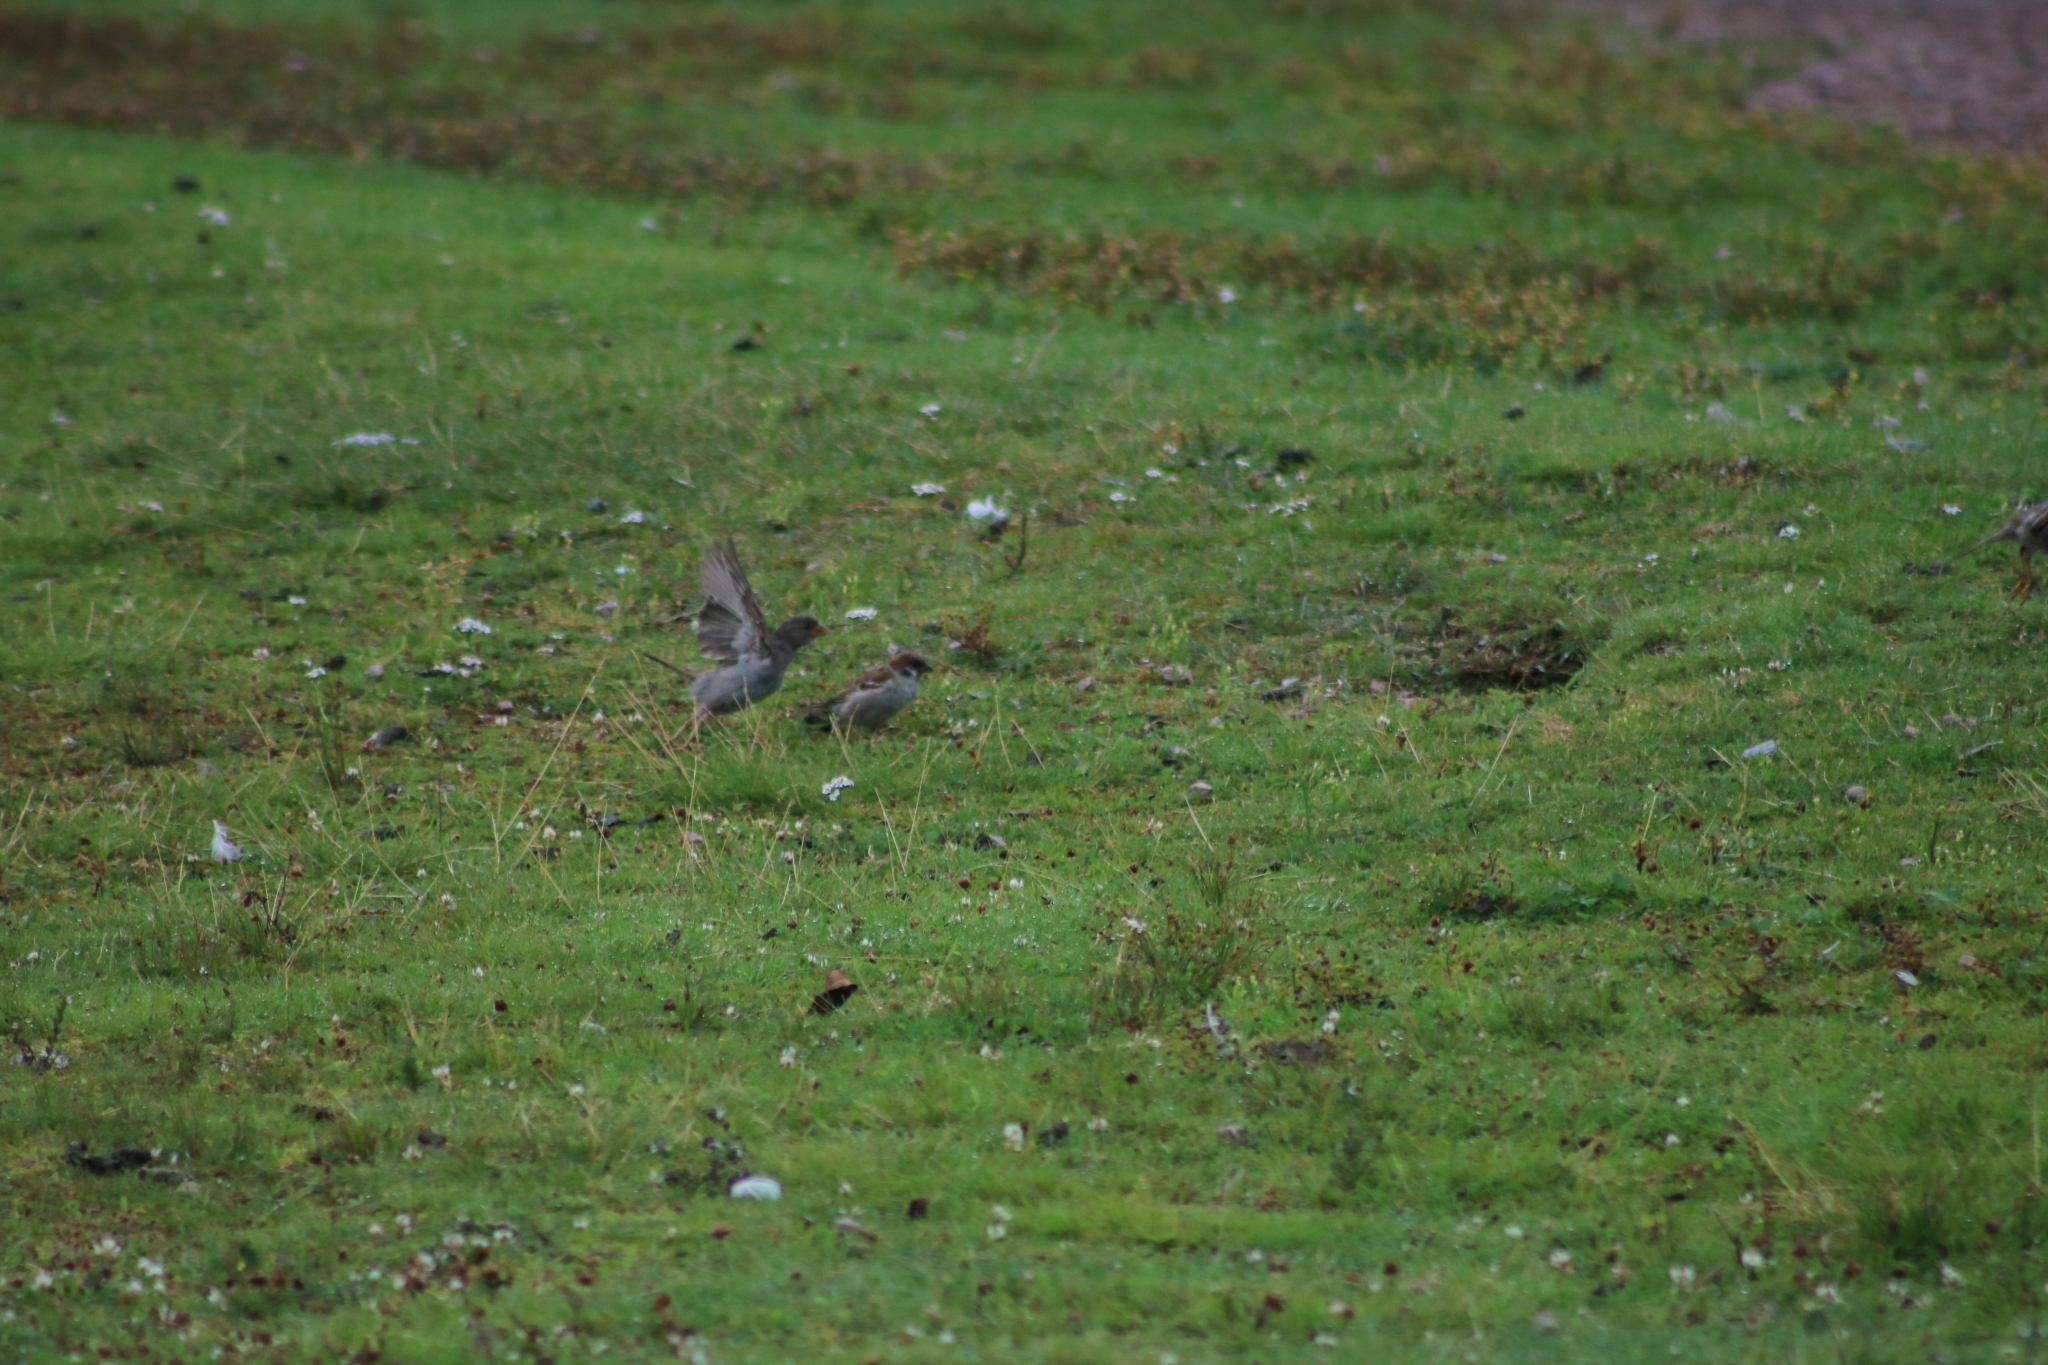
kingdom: Animalia
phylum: Chordata
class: Aves
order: Passeriformes
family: Passeridae
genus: Passer
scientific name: Passer montanus
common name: Eurasian tree sparrow
